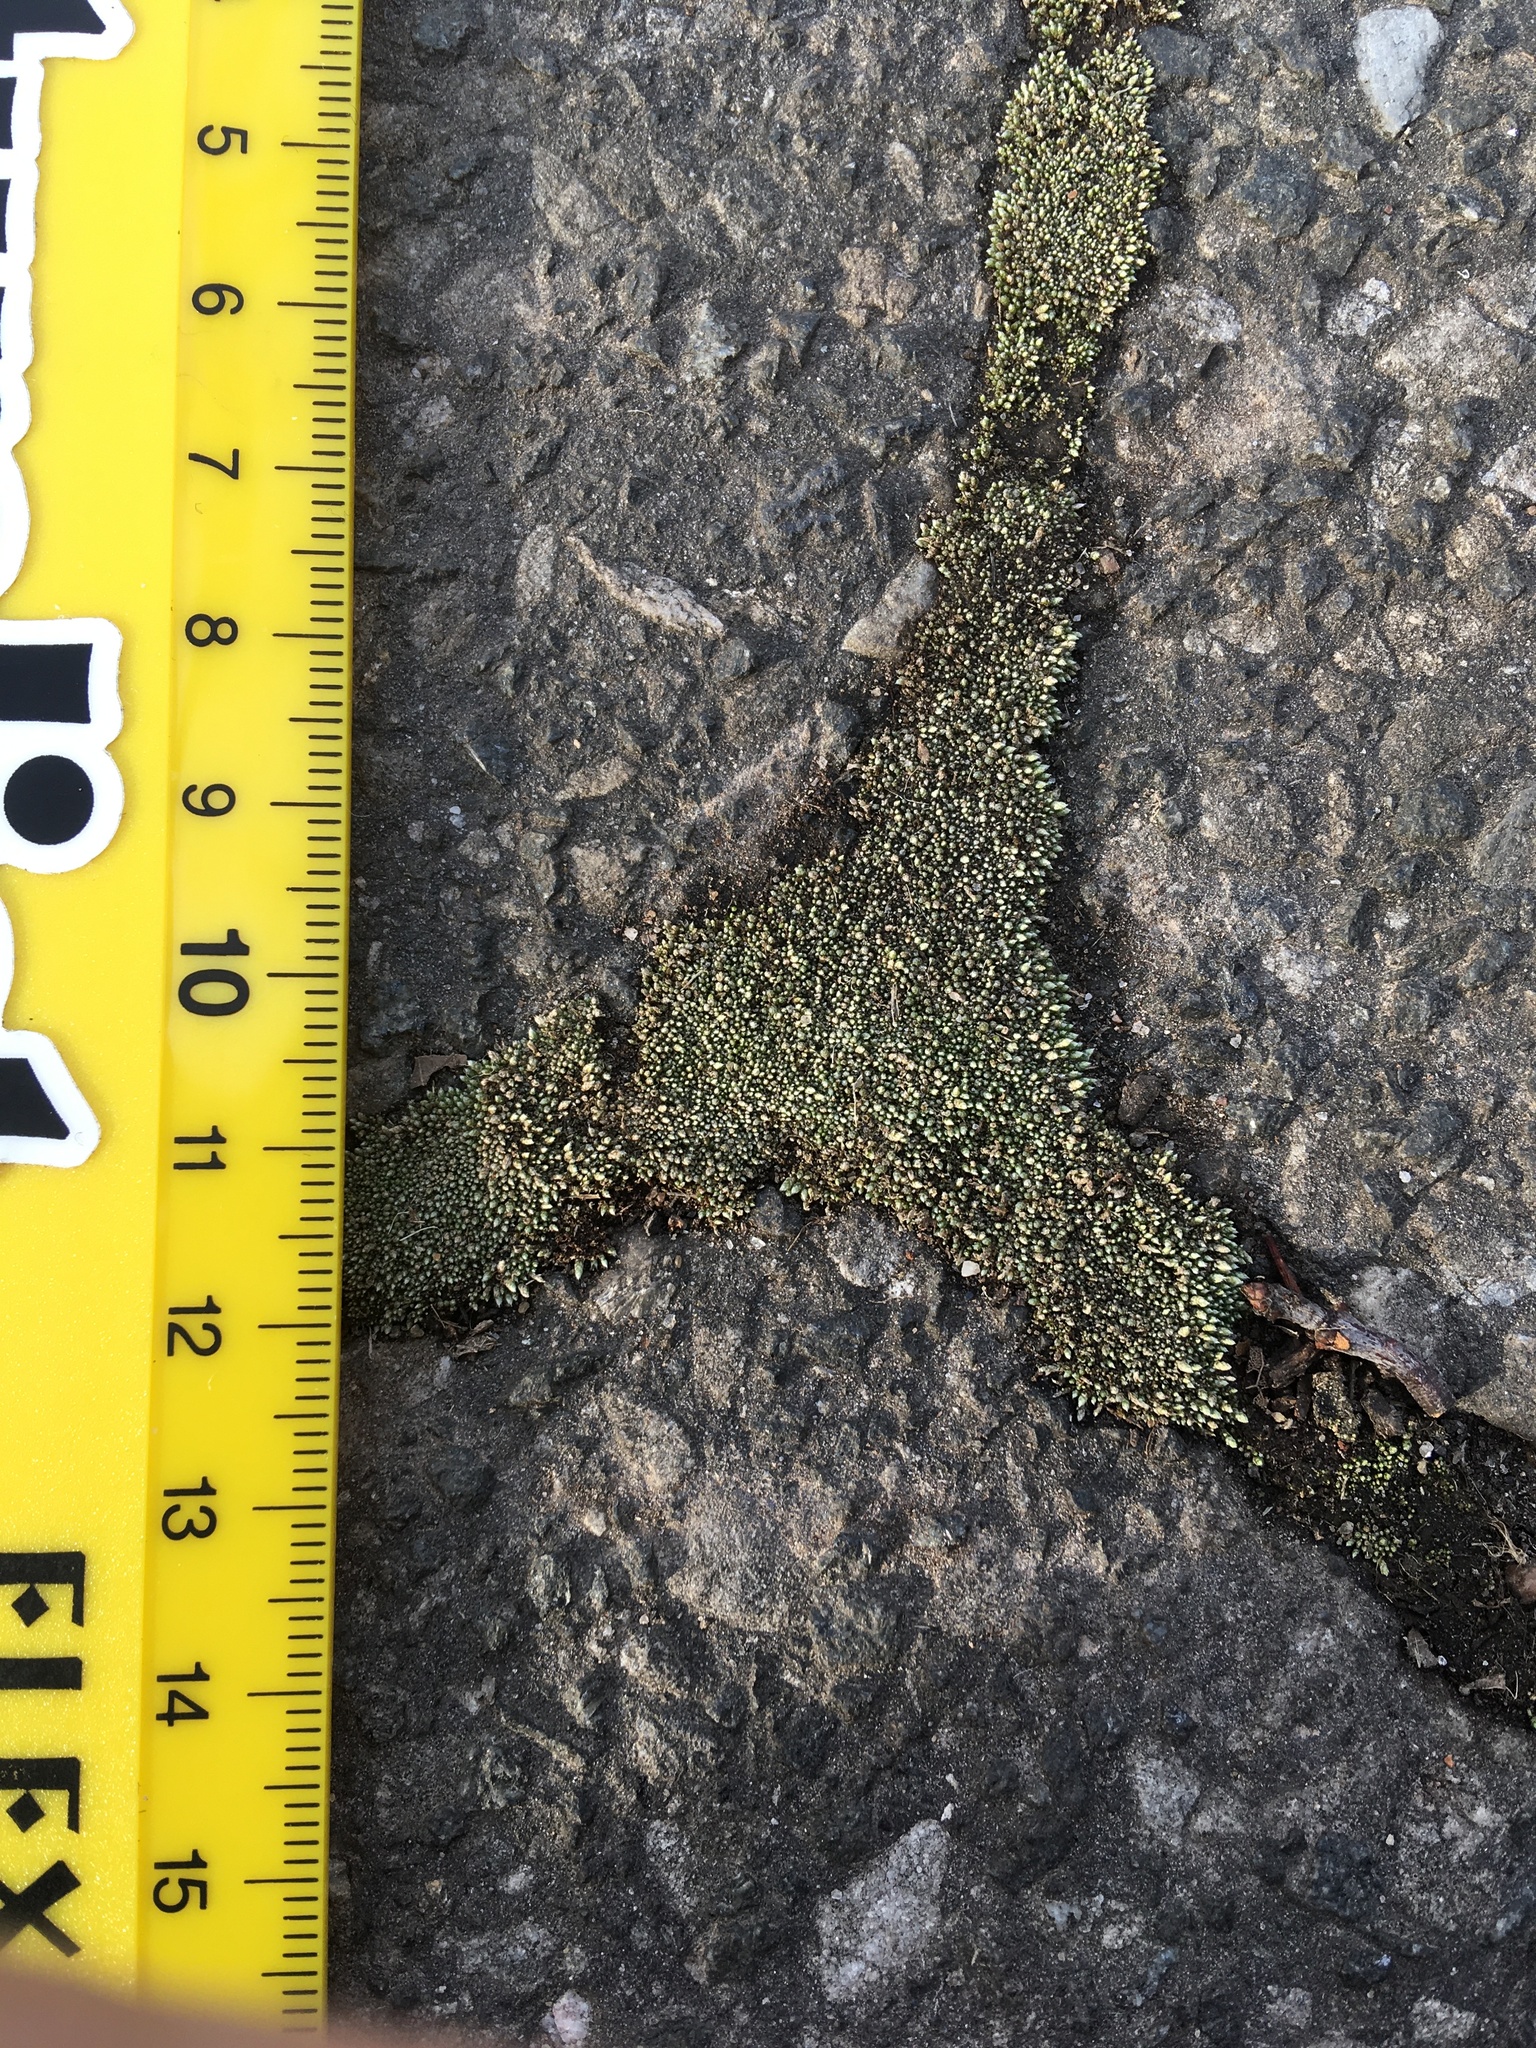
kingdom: Plantae
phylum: Bryophyta
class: Bryopsida
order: Bryales
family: Bryaceae
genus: Bryum
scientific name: Bryum argenteum
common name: Silver-moss
